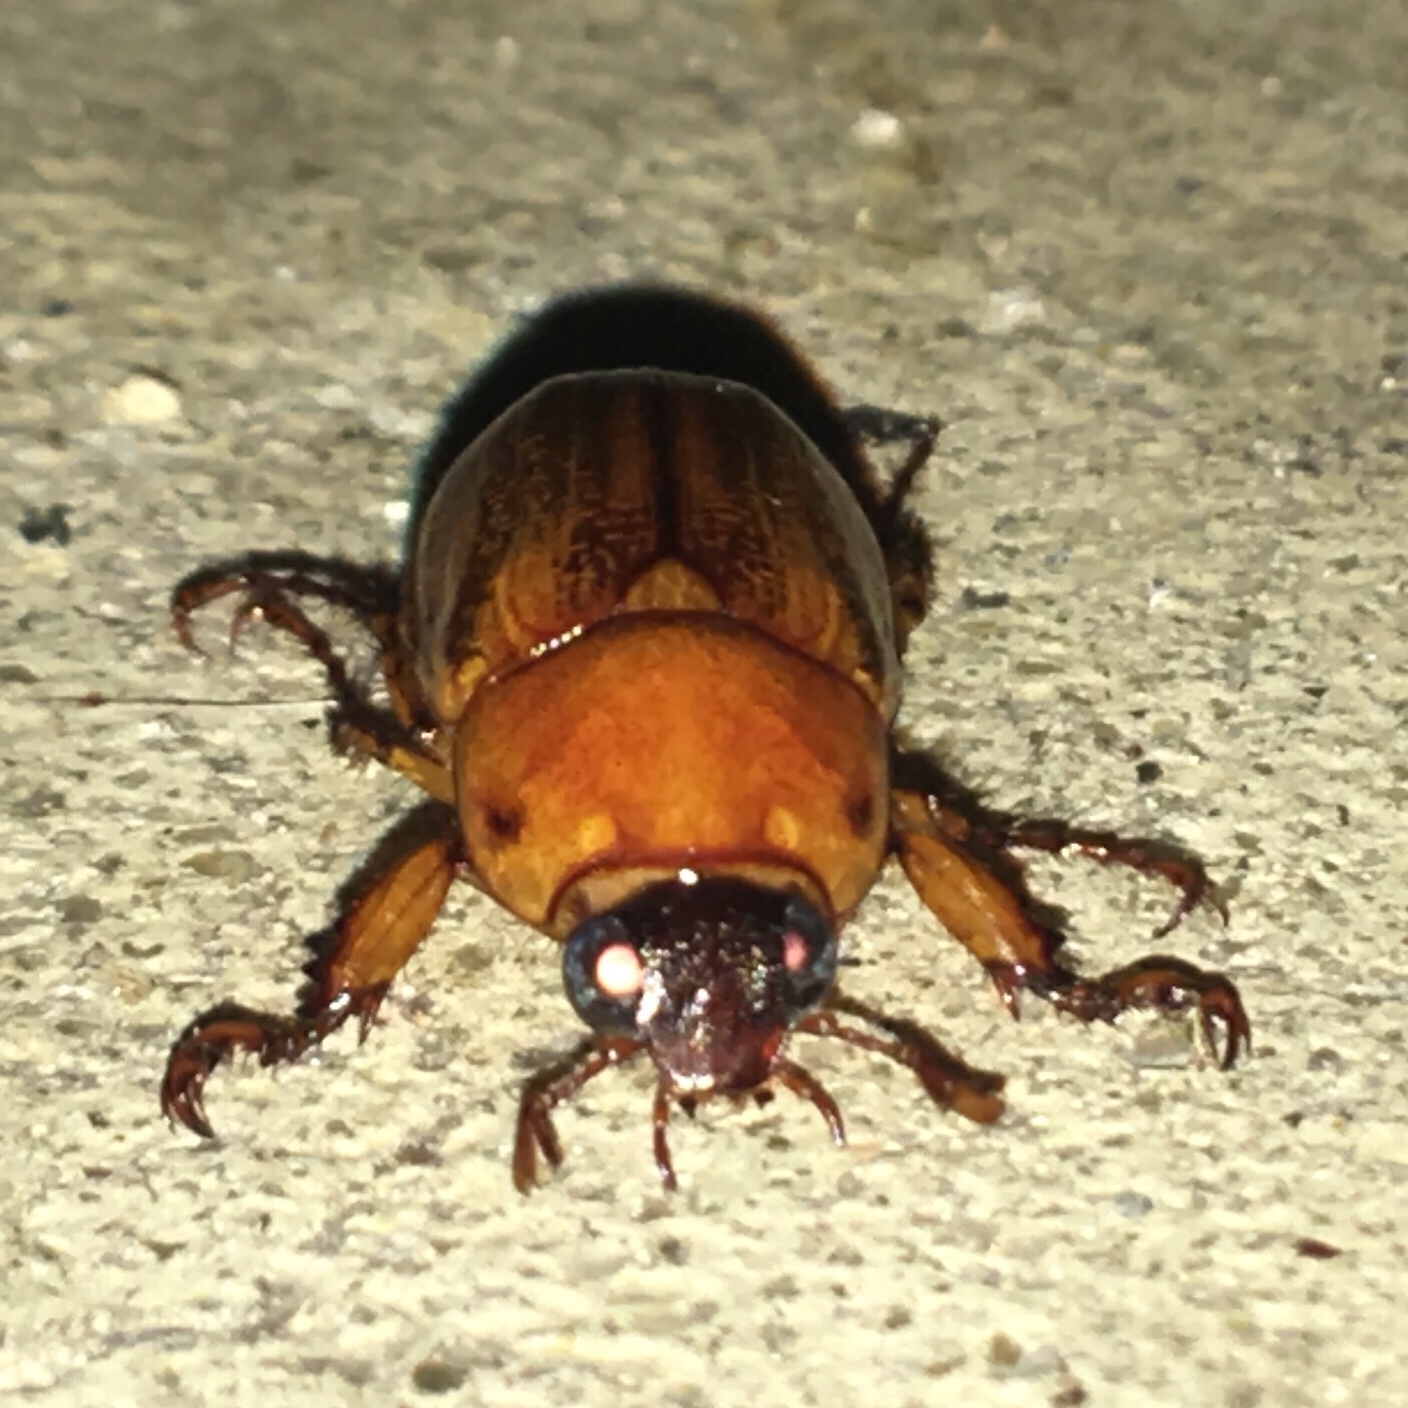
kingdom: Animalia
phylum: Arthropoda
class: Insecta
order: Coleoptera
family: Scarabaeidae
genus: Cyclocephala
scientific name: Cyclocephala lurida
